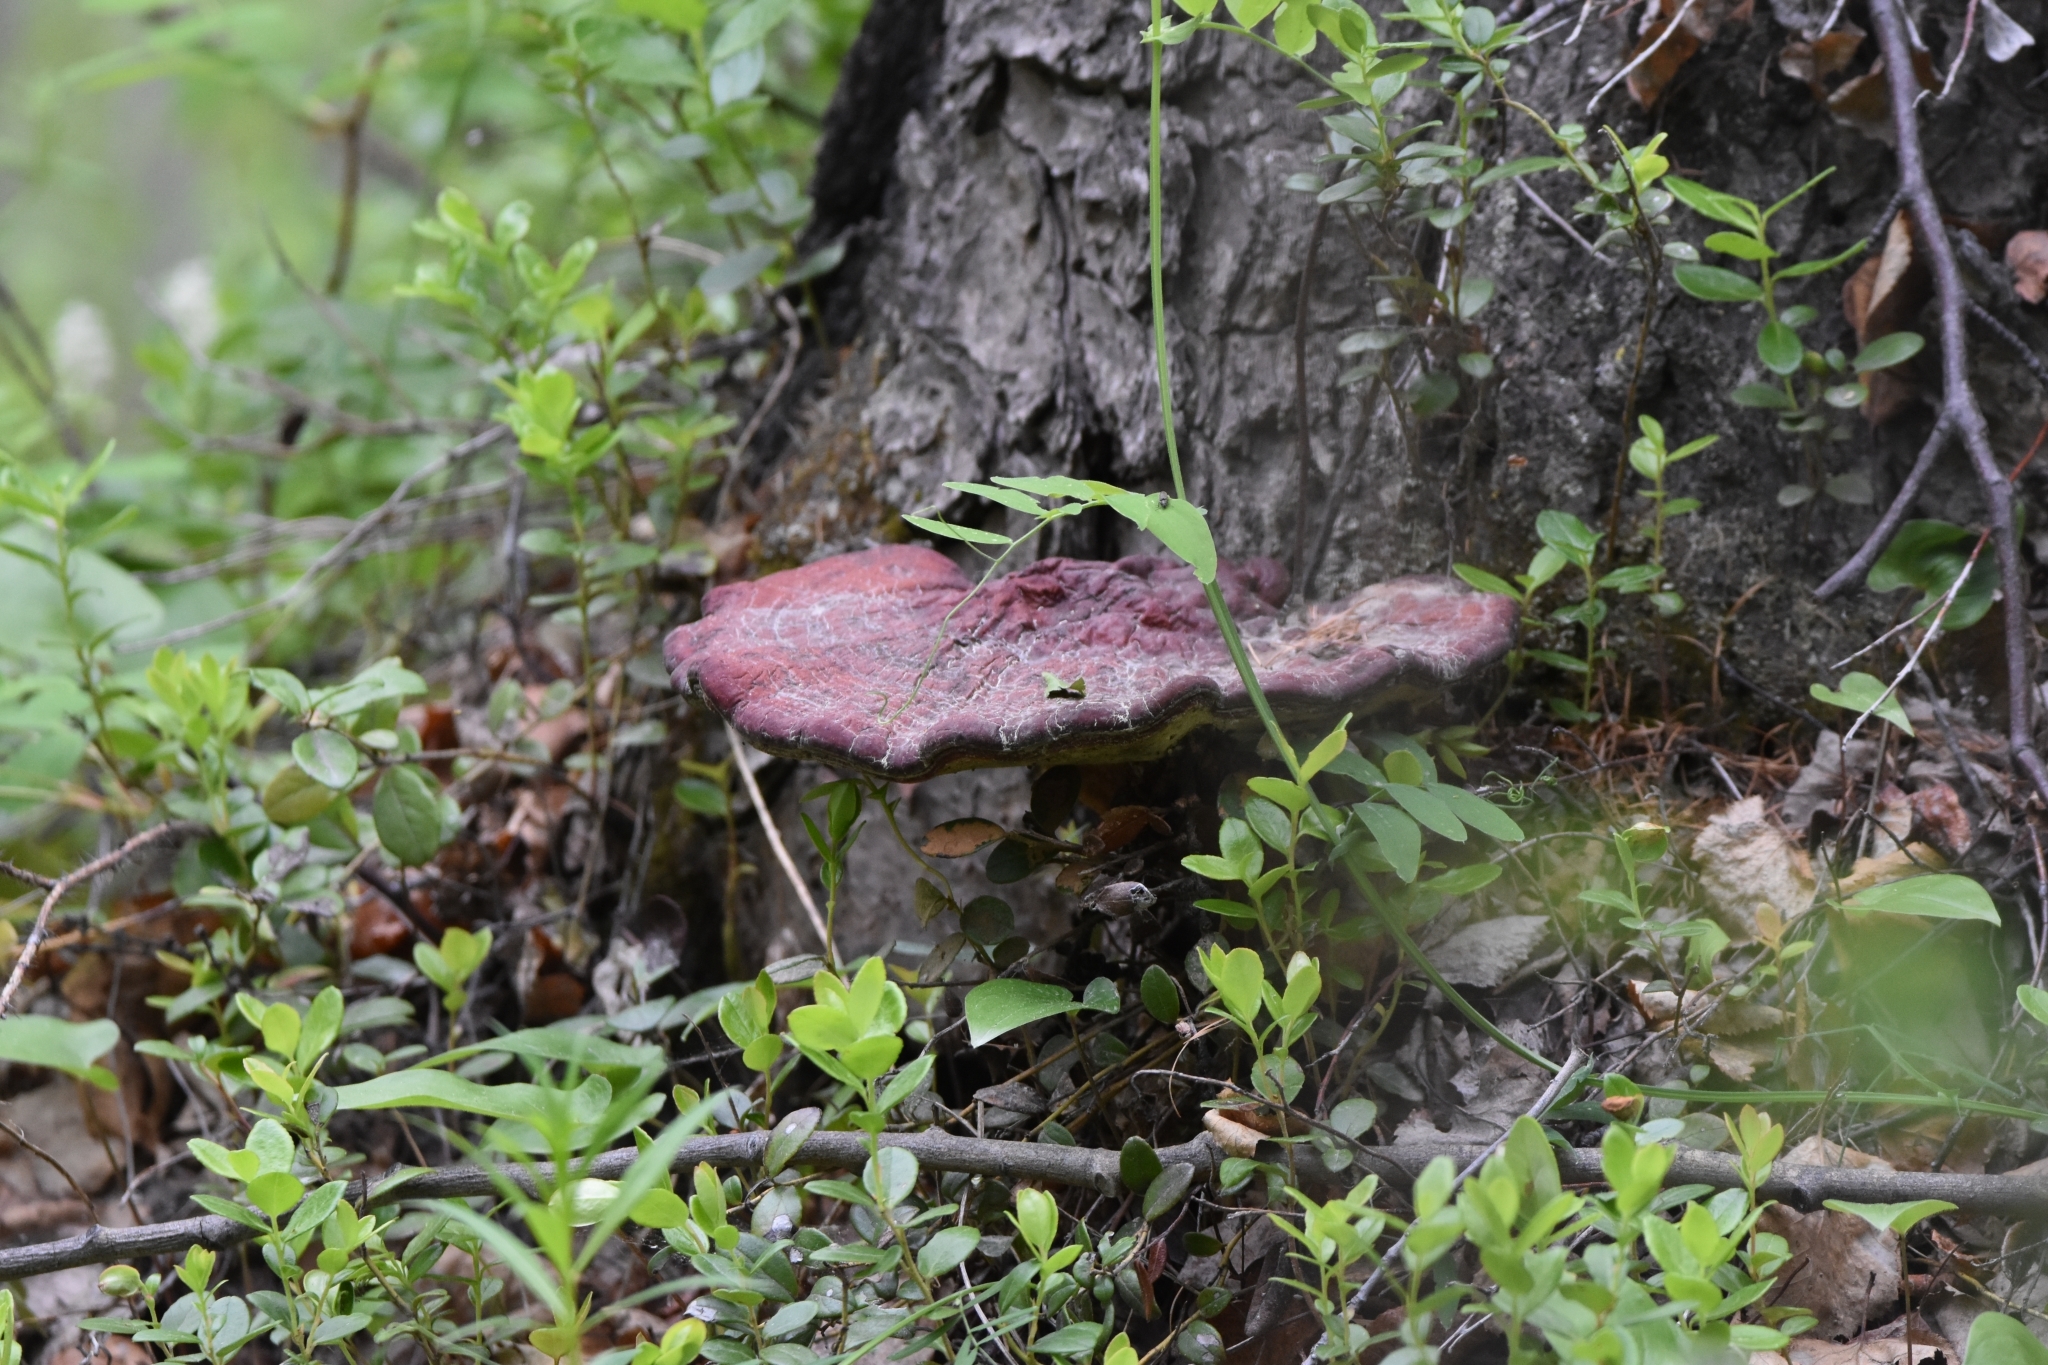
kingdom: Fungi
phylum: Basidiomycota
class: Agaricomycetes
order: Polyporales
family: Polyporaceae
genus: Ganoderma
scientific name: Ganoderma lucidum
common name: Lacquered bracket
